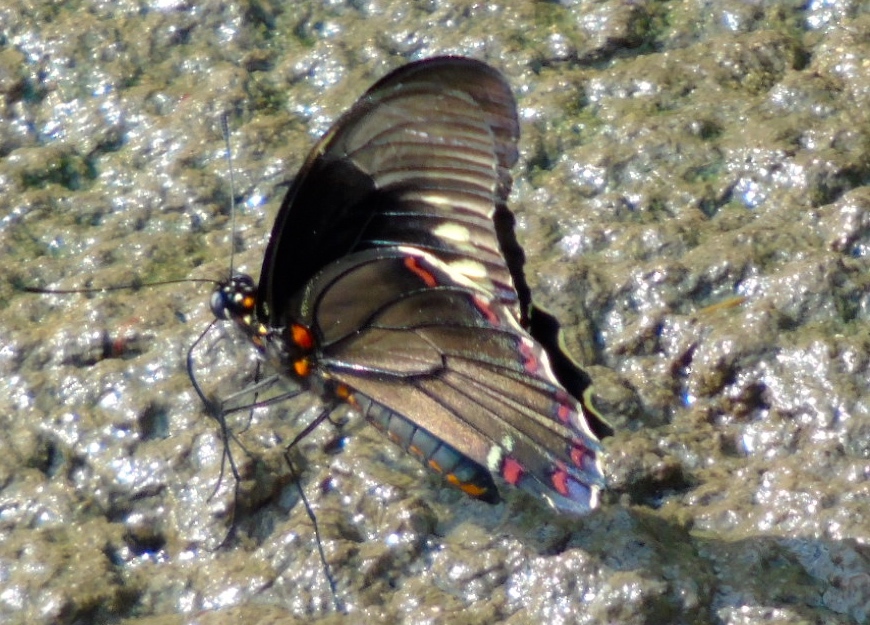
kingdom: Animalia
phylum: Arthropoda
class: Insecta
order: Lepidoptera
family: Papilionidae
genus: Battus
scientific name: Battus polydamas
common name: Polydamas swallowtail
